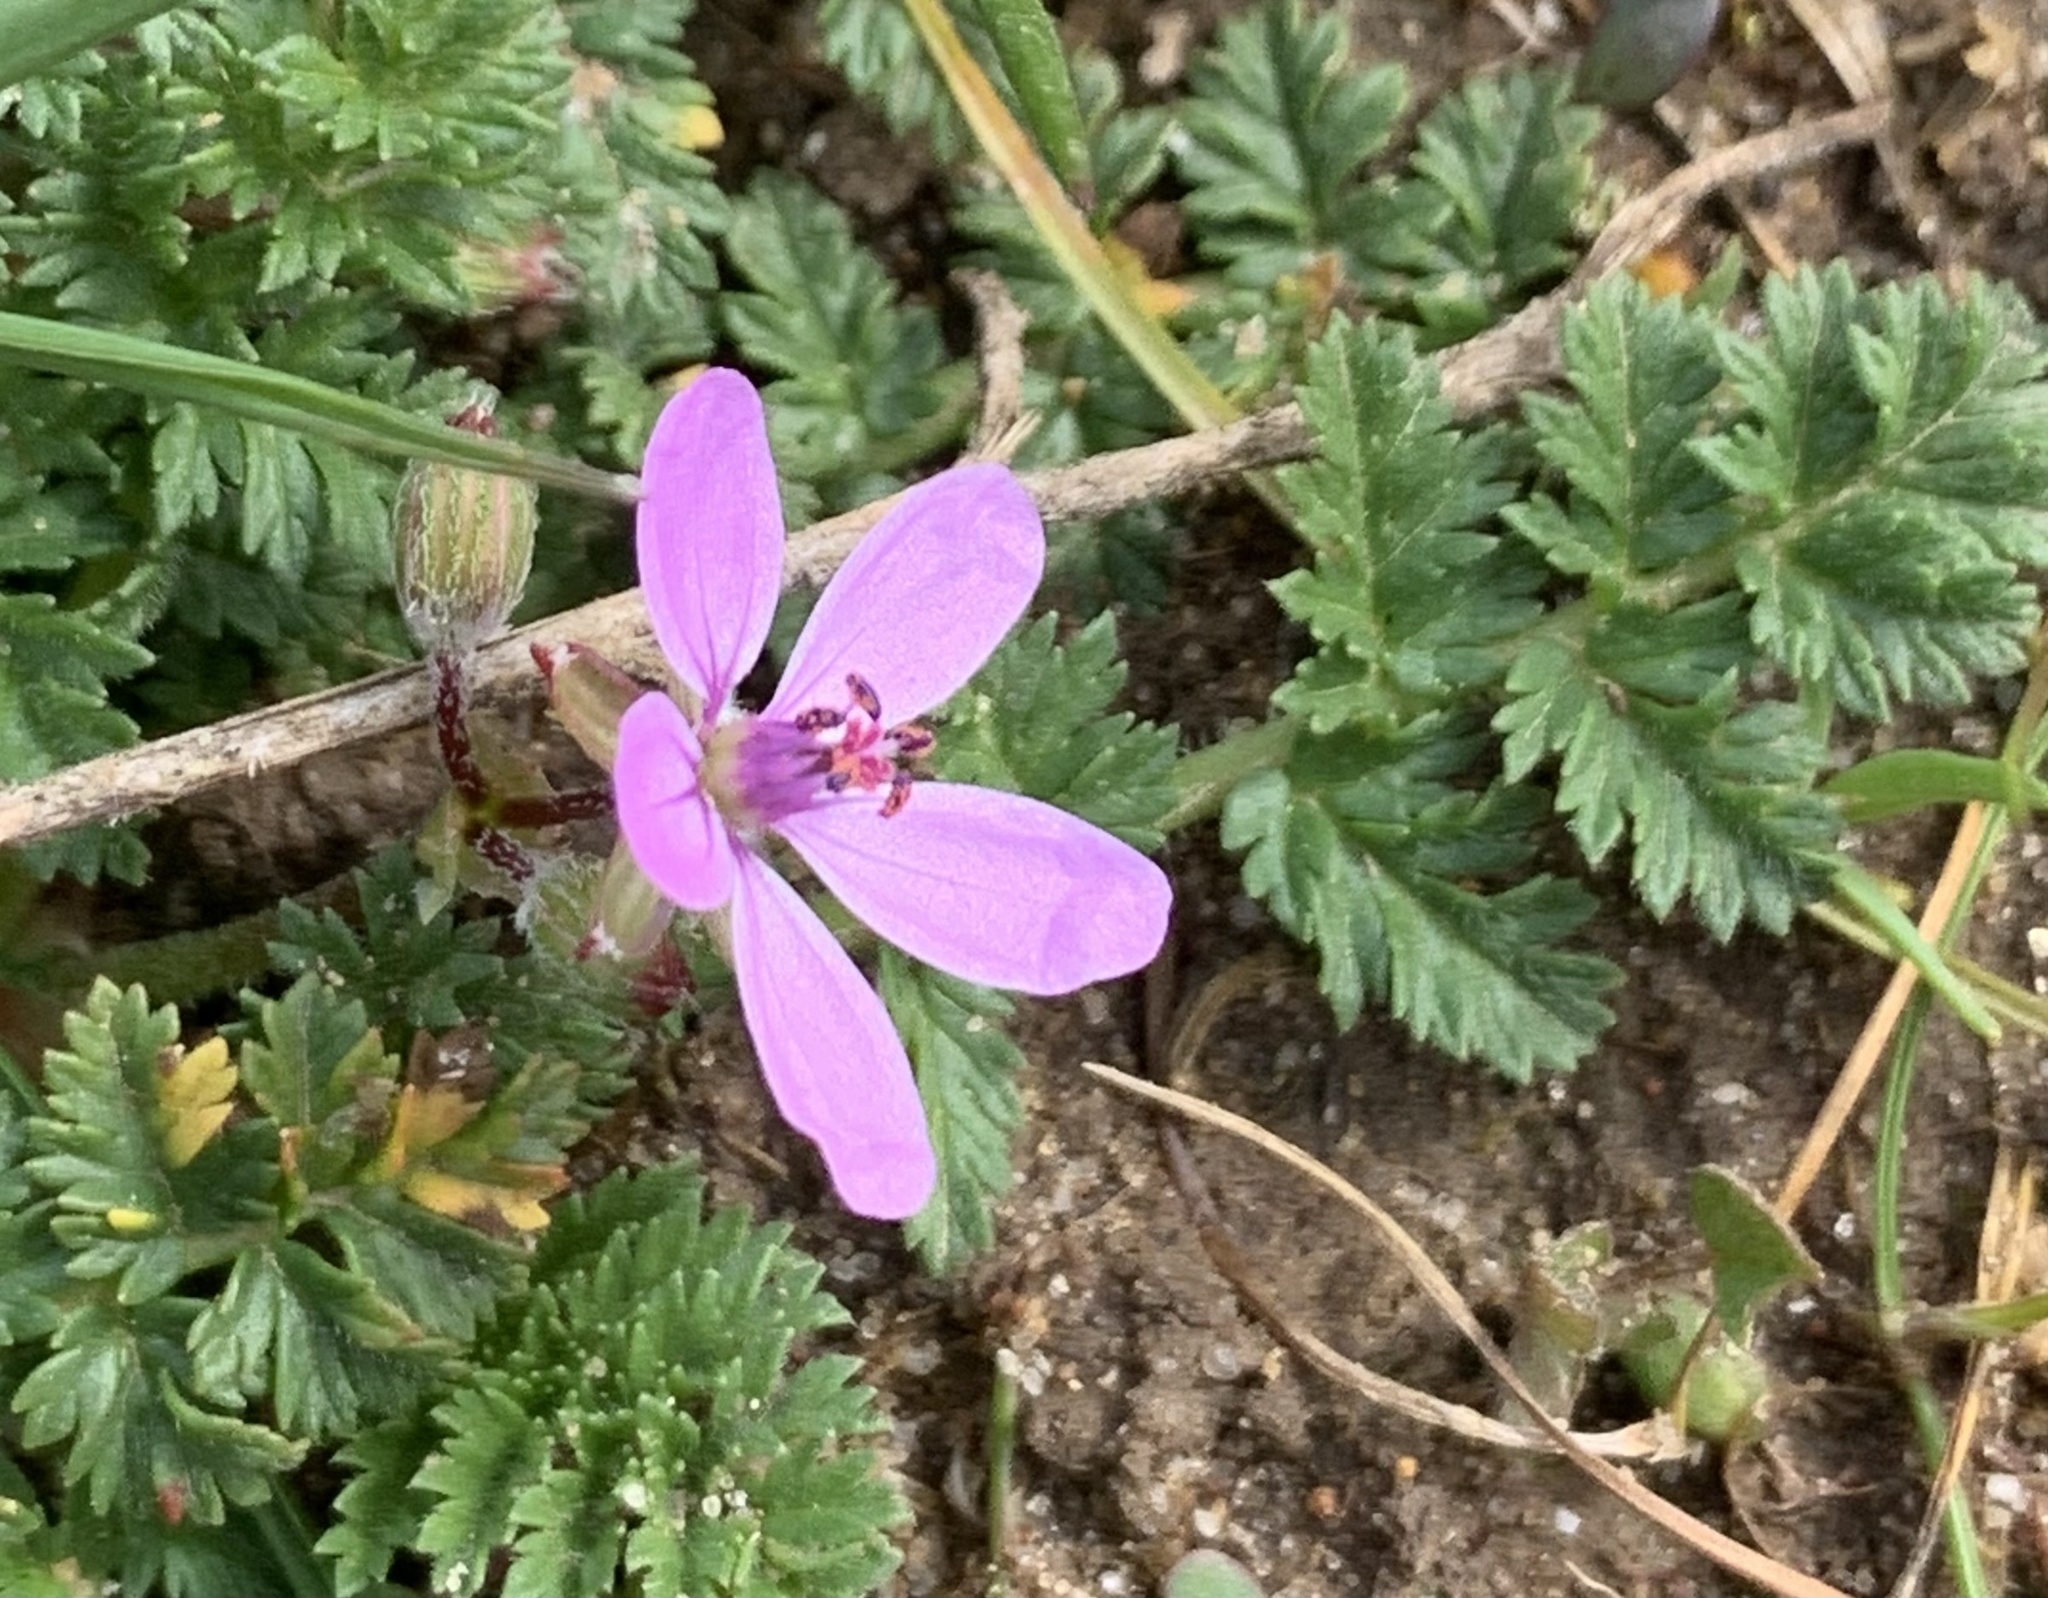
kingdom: Plantae
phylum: Tracheophyta
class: Magnoliopsida
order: Geraniales
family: Geraniaceae
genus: Erodium
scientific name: Erodium cicutarium
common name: Common stork's-bill
